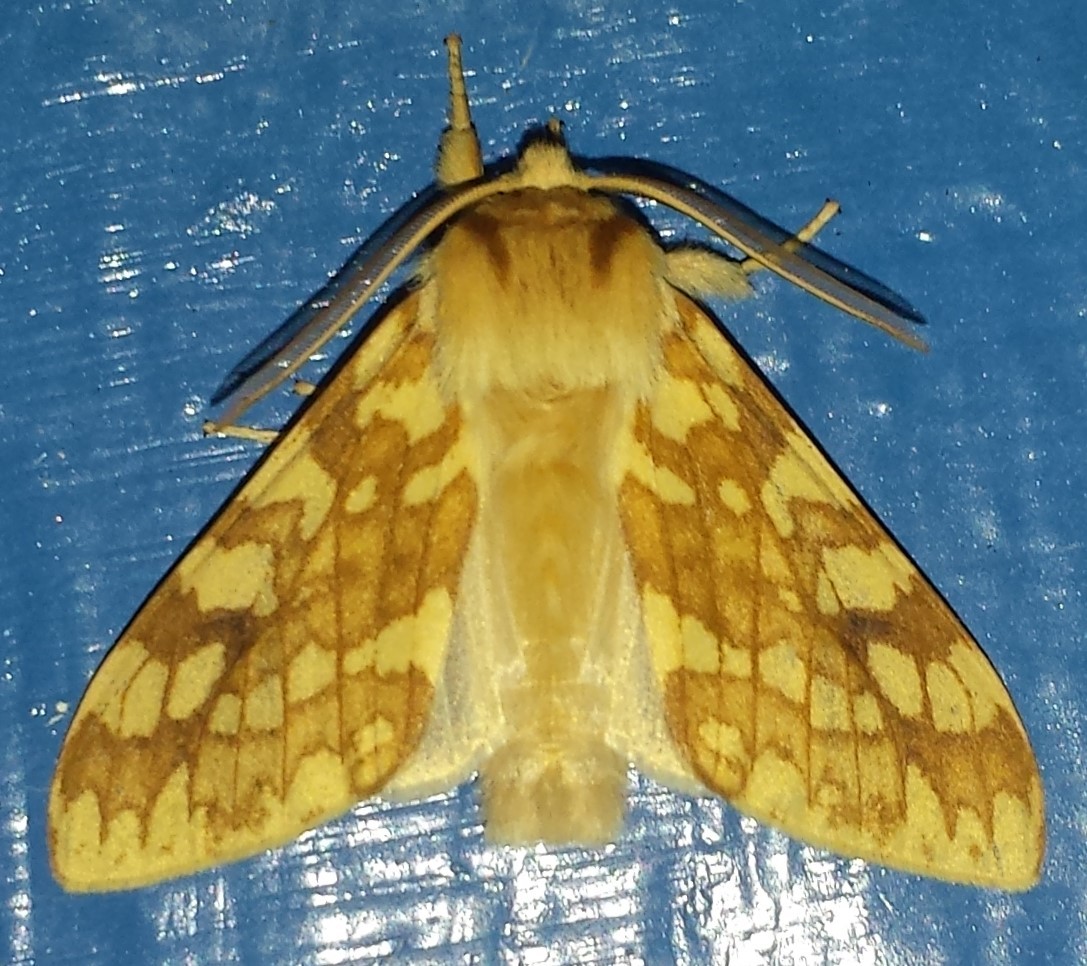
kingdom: Animalia
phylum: Arthropoda
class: Insecta
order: Lepidoptera
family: Erebidae
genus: Lophocampa
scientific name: Lophocampa maculata
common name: Spotted tussock moth
